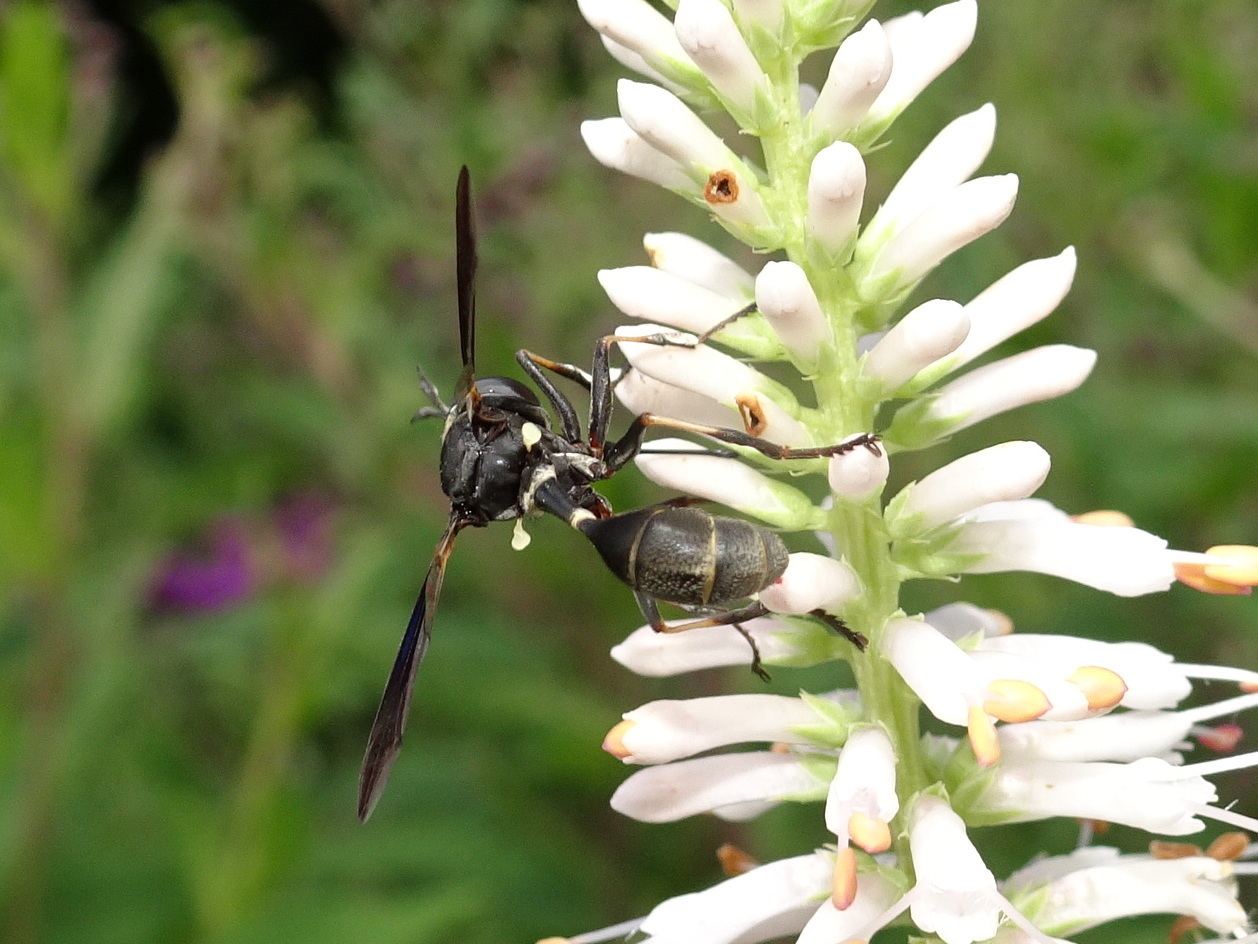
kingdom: Animalia
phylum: Arthropoda
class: Insecta
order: Diptera
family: Conopidae
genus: Physocephala
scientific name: Physocephala tibialis
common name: Common eastern physocephala
